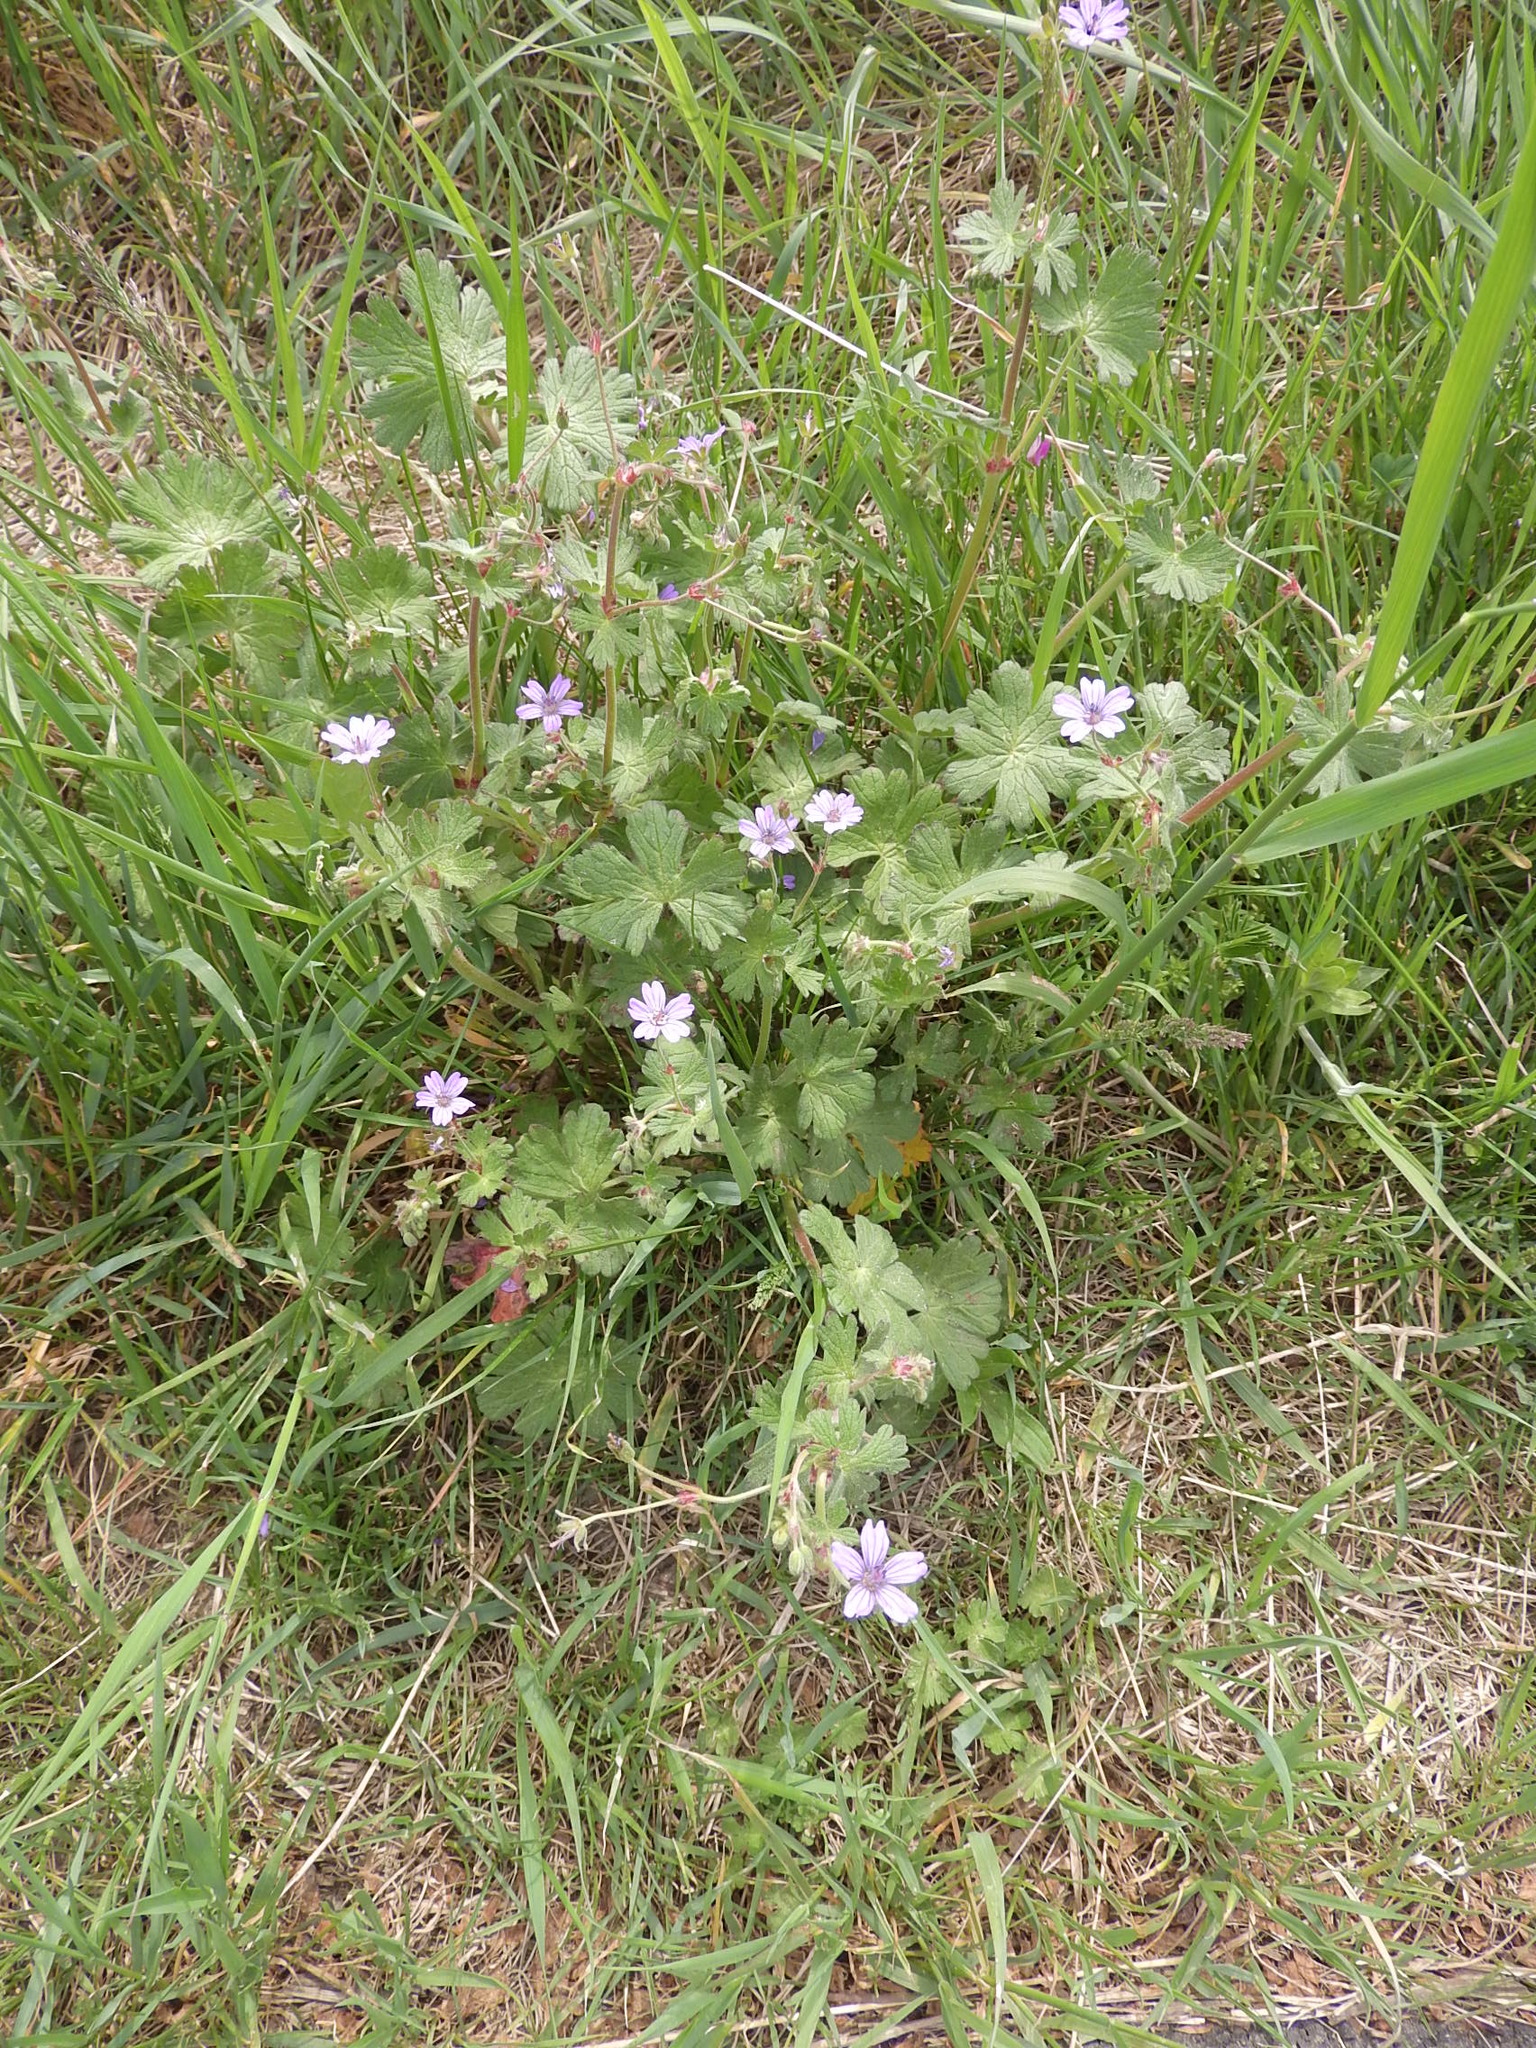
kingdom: Plantae
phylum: Tracheophyta
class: Magnoliopsida
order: Geraniales
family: Geraniaceae
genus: Geranium
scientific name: Geranium pyrenaicum
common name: Hedgerow crane's-bill
